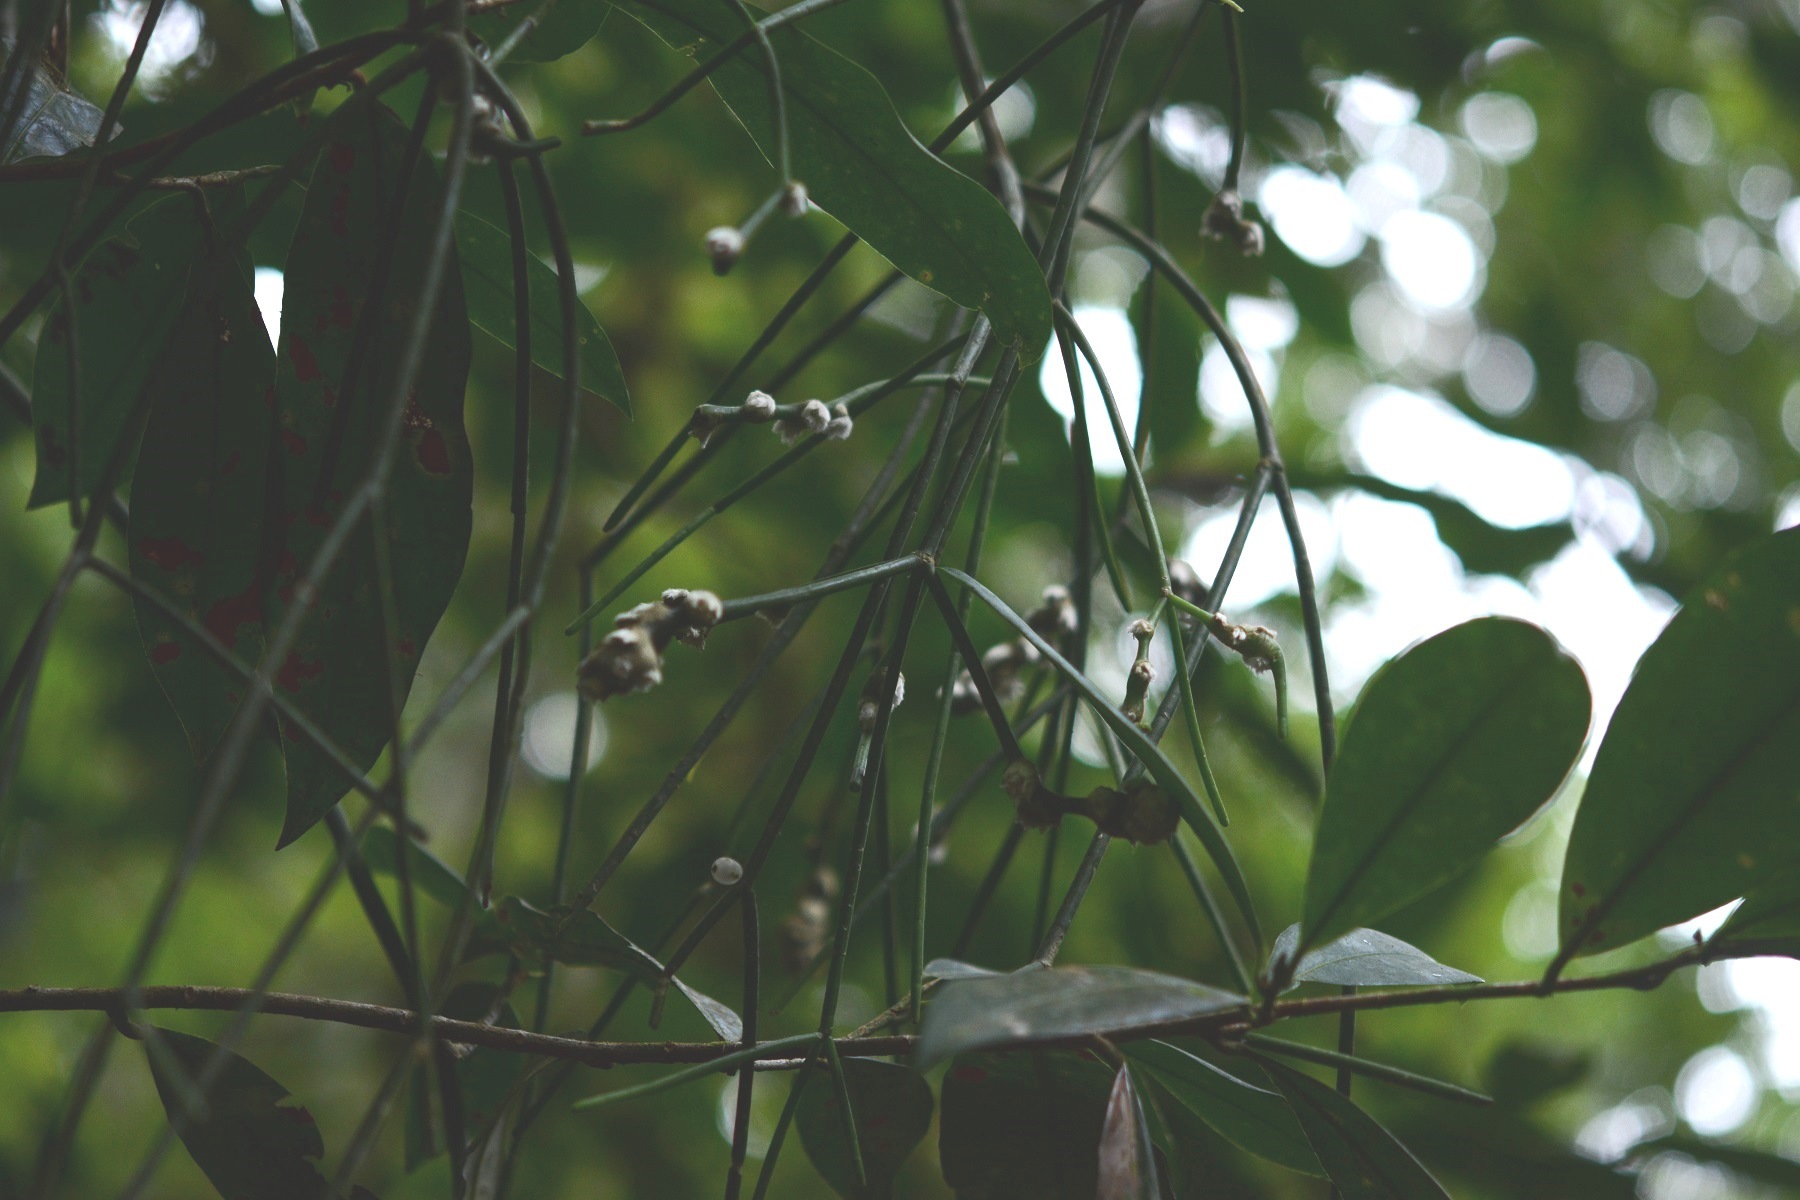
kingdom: Plantae
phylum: Tracheophyta
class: Magnoliopsida
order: Caryophyllales
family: Cactaceae
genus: Rhipsalis
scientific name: Rhipsalis baccifera
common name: Mistletoe cactus
